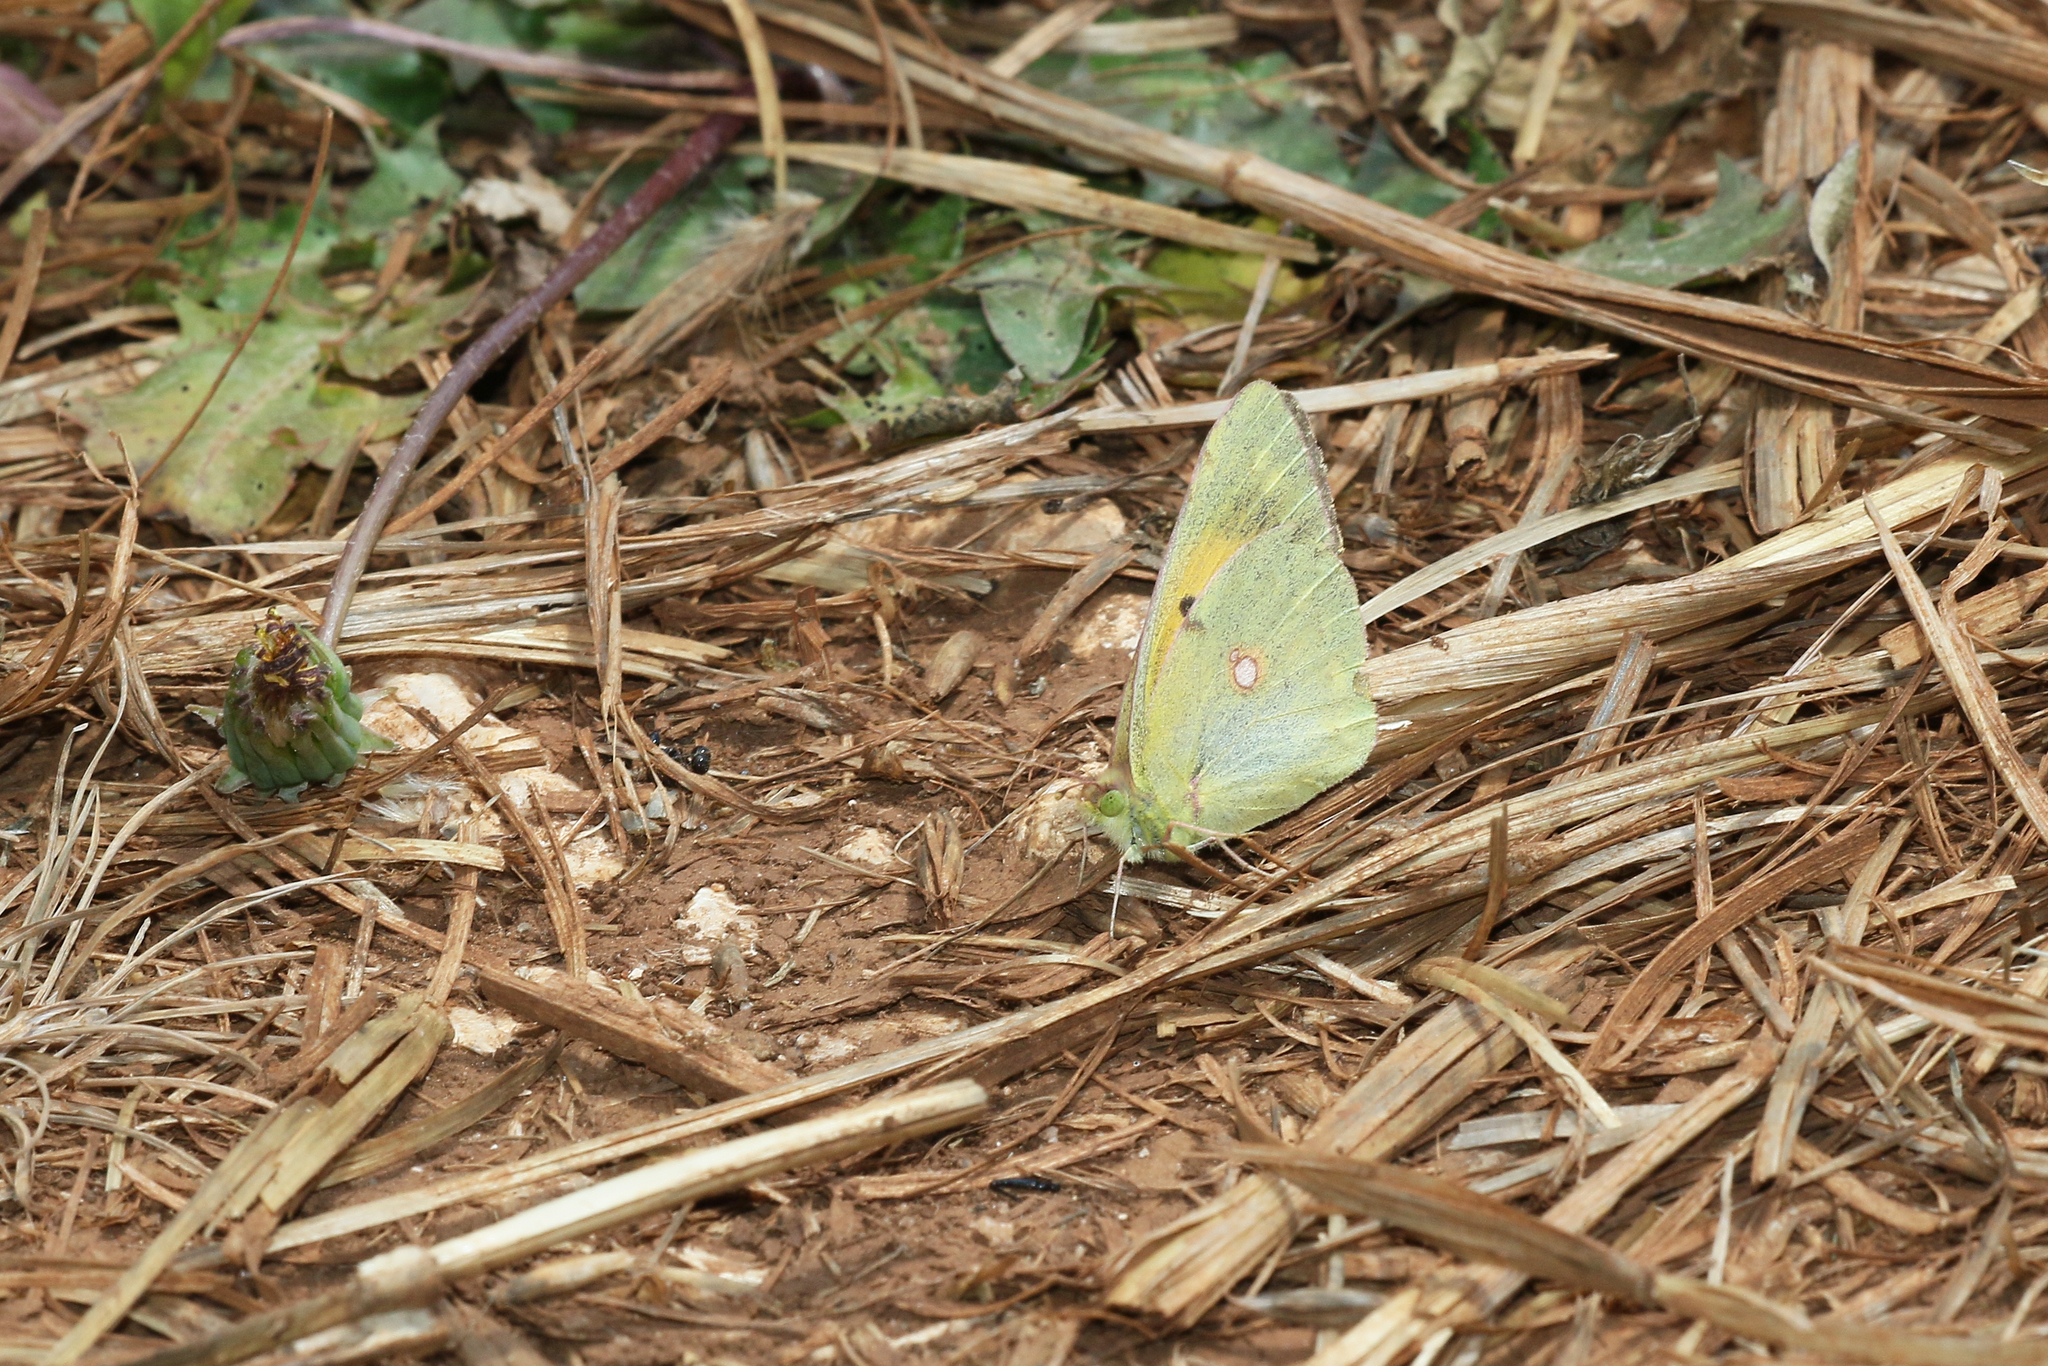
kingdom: Animalia
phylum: Arthropoda
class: Insecta
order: Lepidoptera
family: Pieridae
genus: Colias
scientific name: Colias croceus
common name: Clouded yellow
